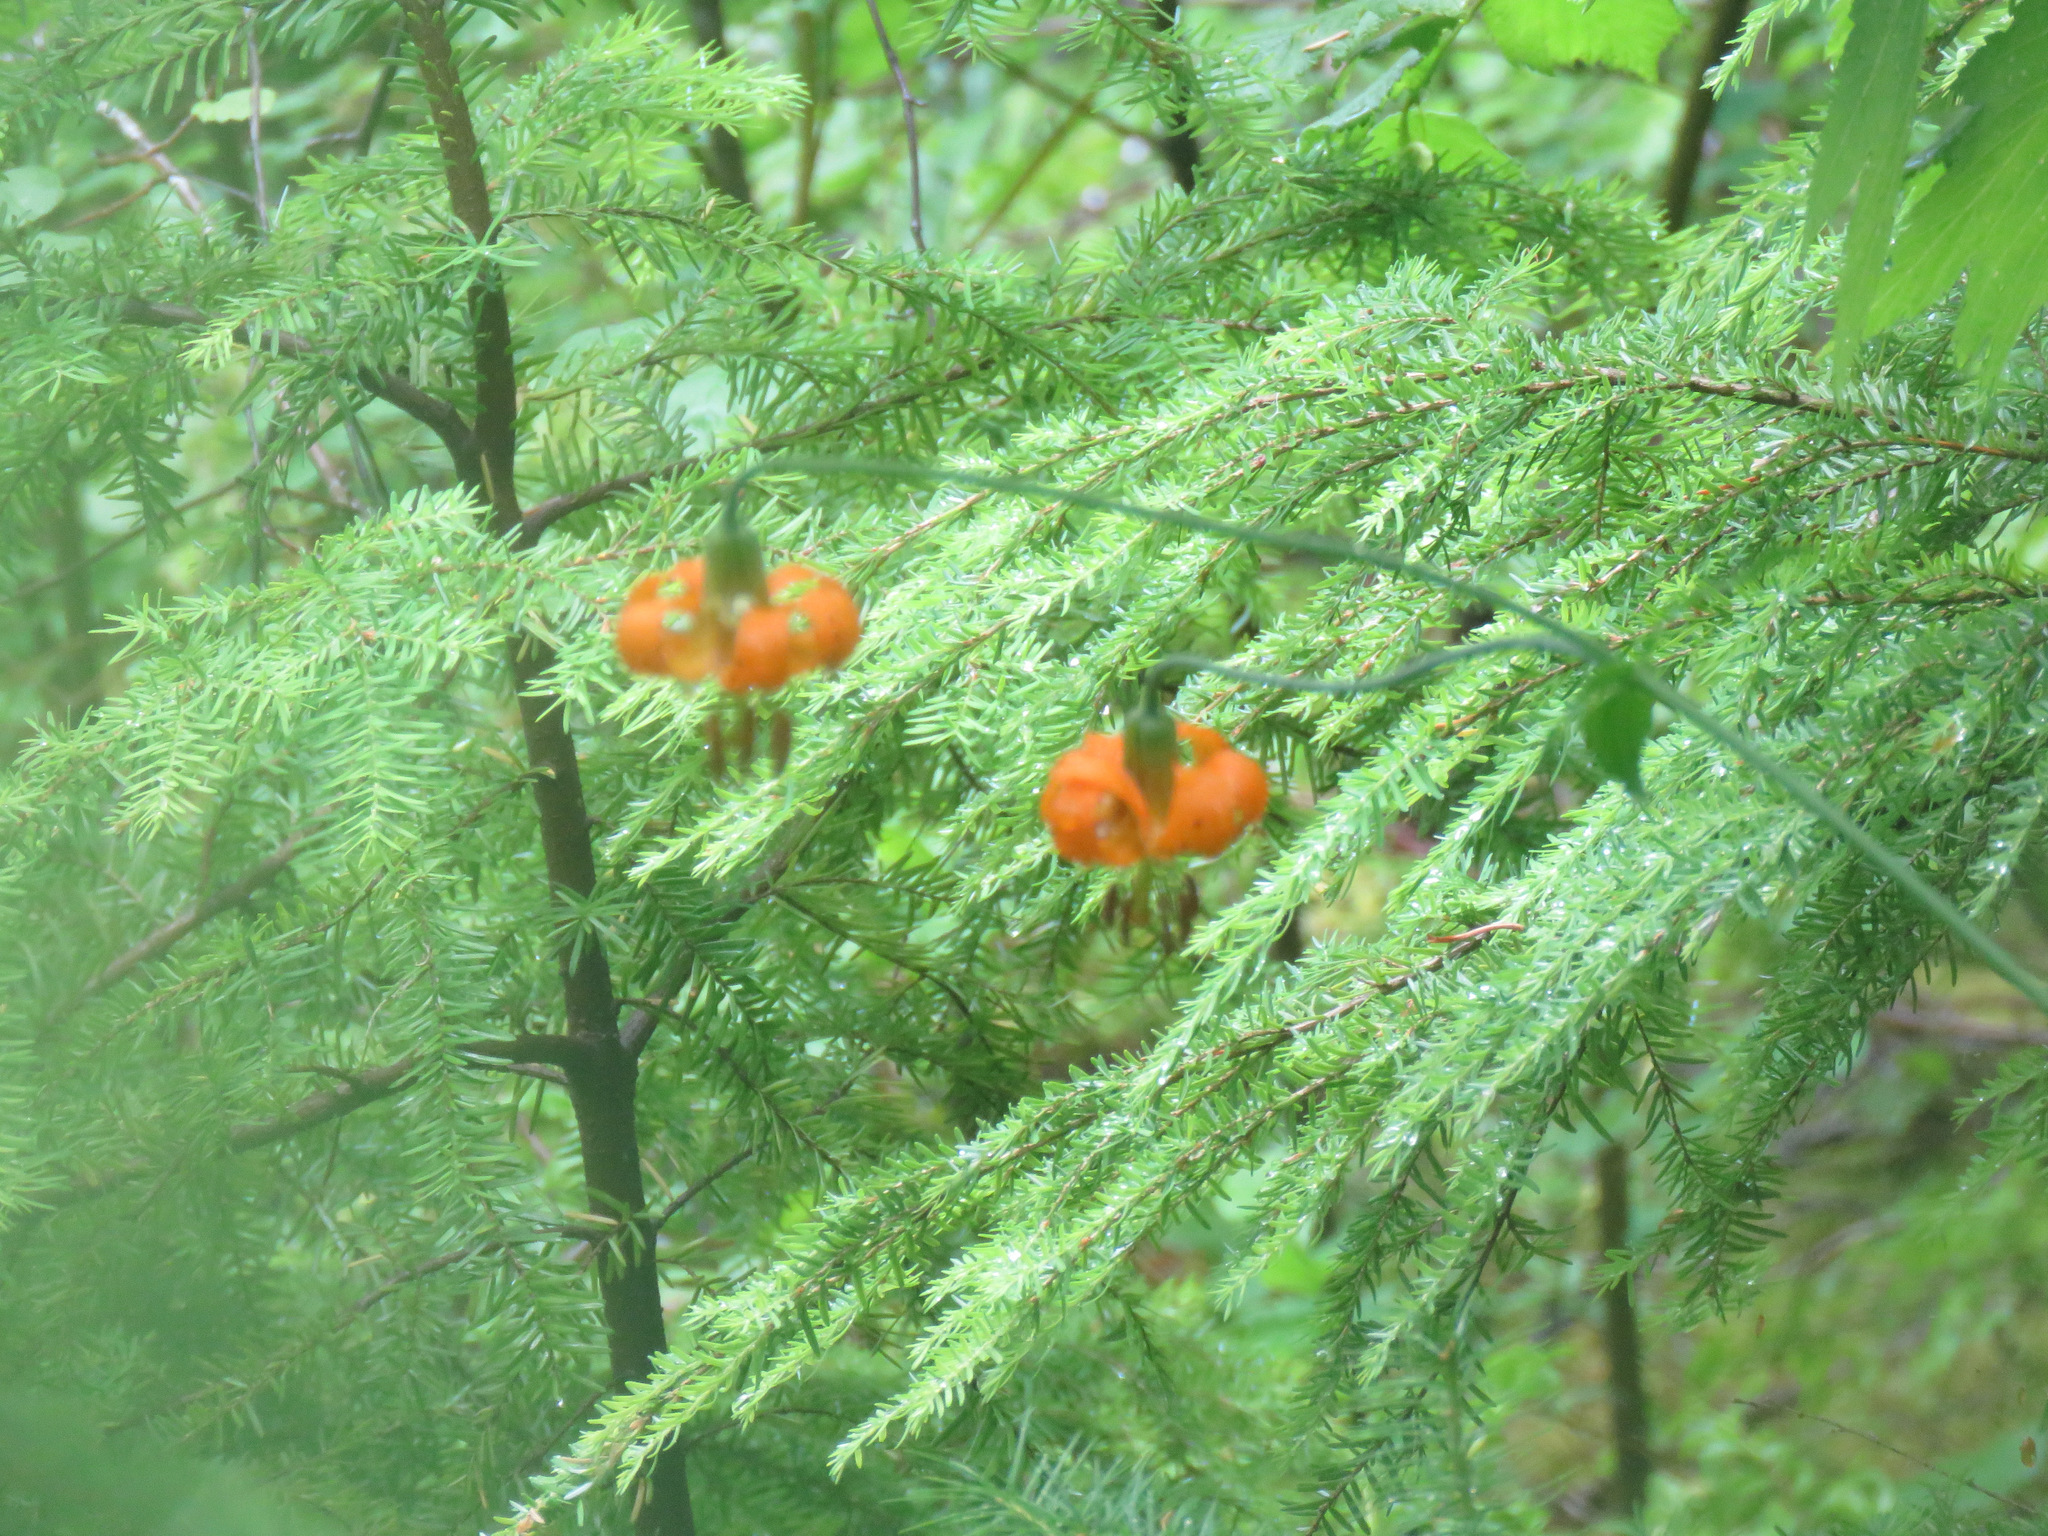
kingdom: Plantae
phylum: Tracheophyta
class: Liliopsida
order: Liliales
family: Liliaceae
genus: Lilium
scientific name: Lilium columbianum
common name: Columbia lily
